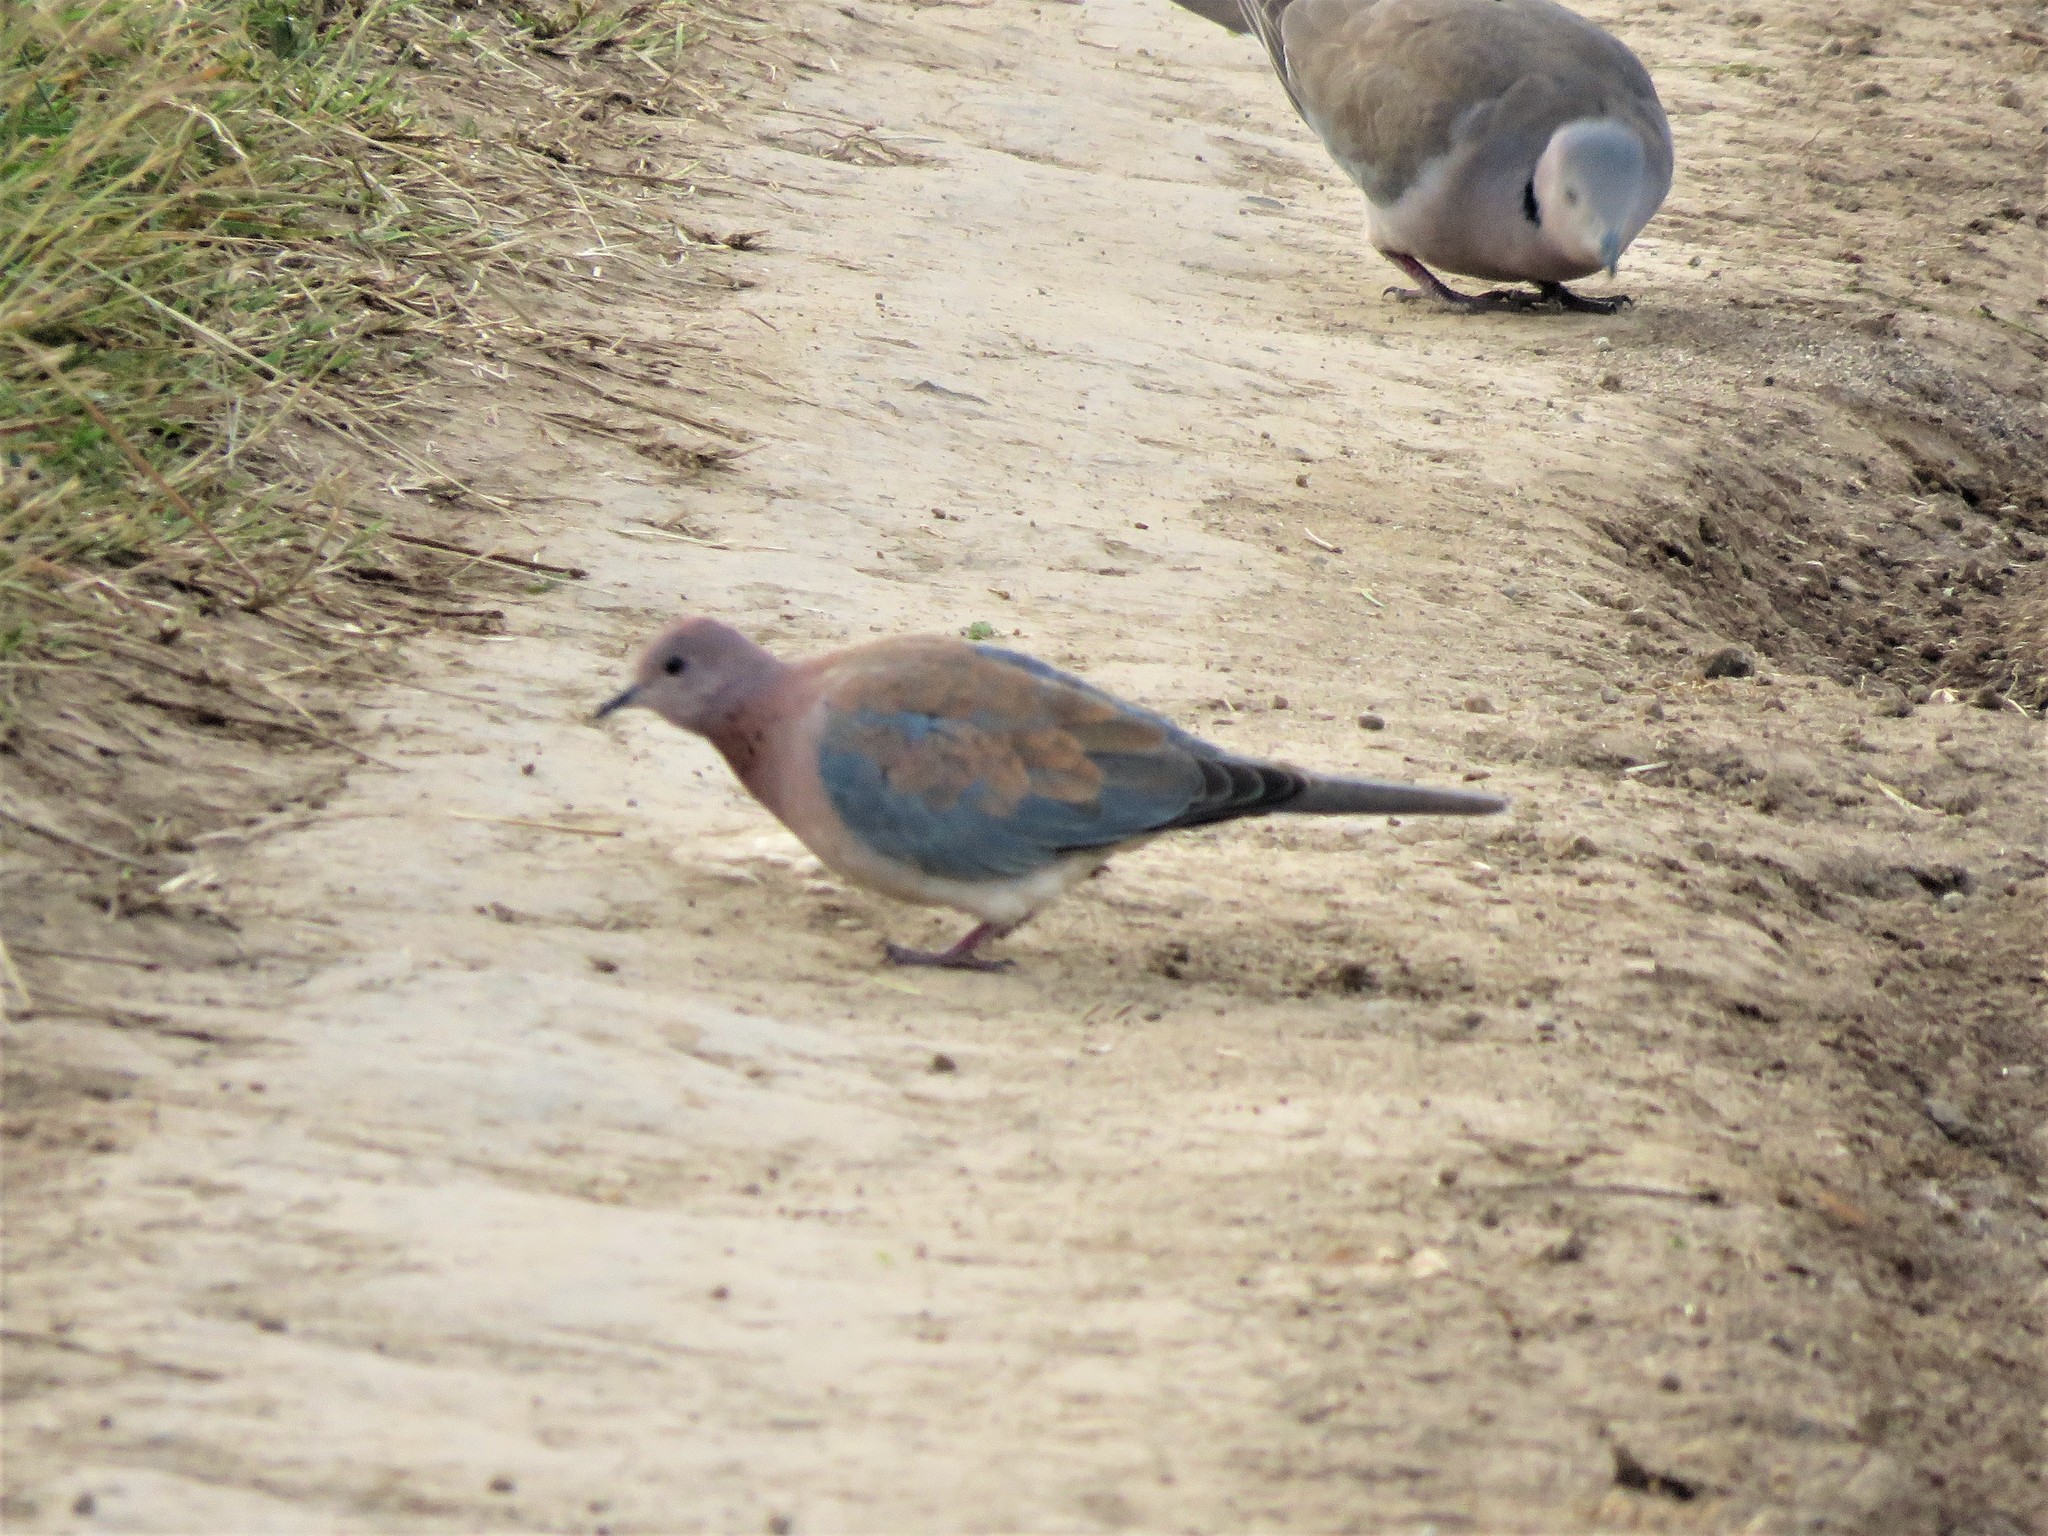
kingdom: Animalia
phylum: Chordata
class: Aves
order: Columbiformes
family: Columbidae
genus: Spilopelia
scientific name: Spilopelia senegalensis
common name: Laughing dove
